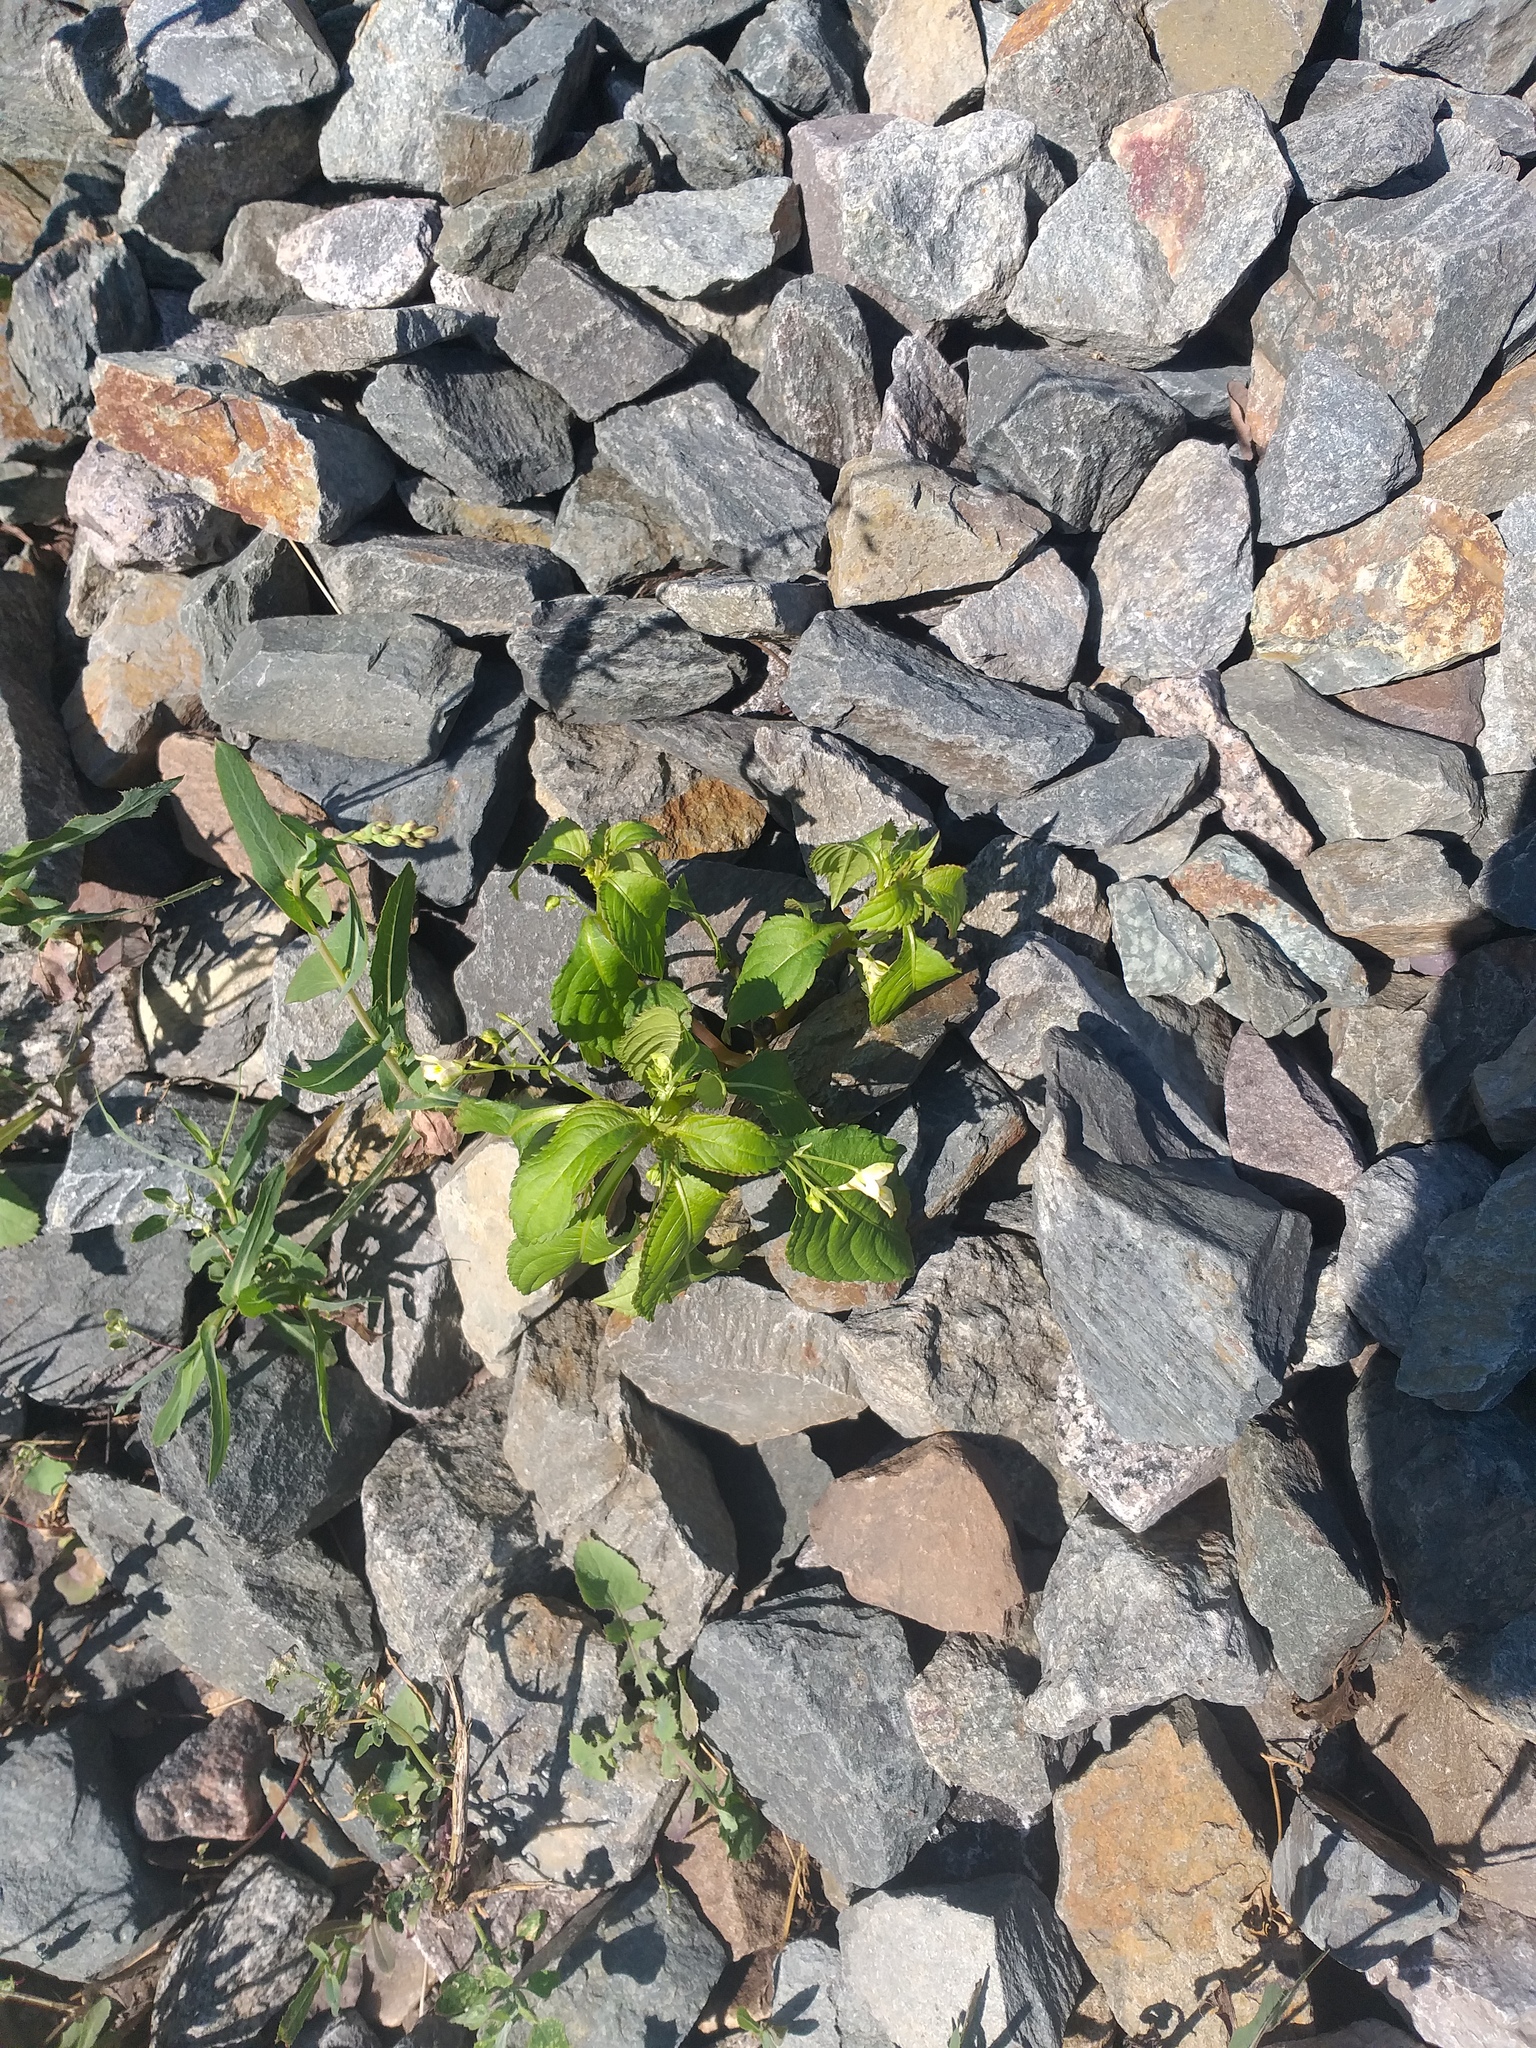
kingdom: Plantae
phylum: Tracheophyta
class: Magnoliopsida
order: Ericales
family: Balsaminaceae
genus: Impatiens
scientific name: Impatiens parviflora
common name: Small balsam
